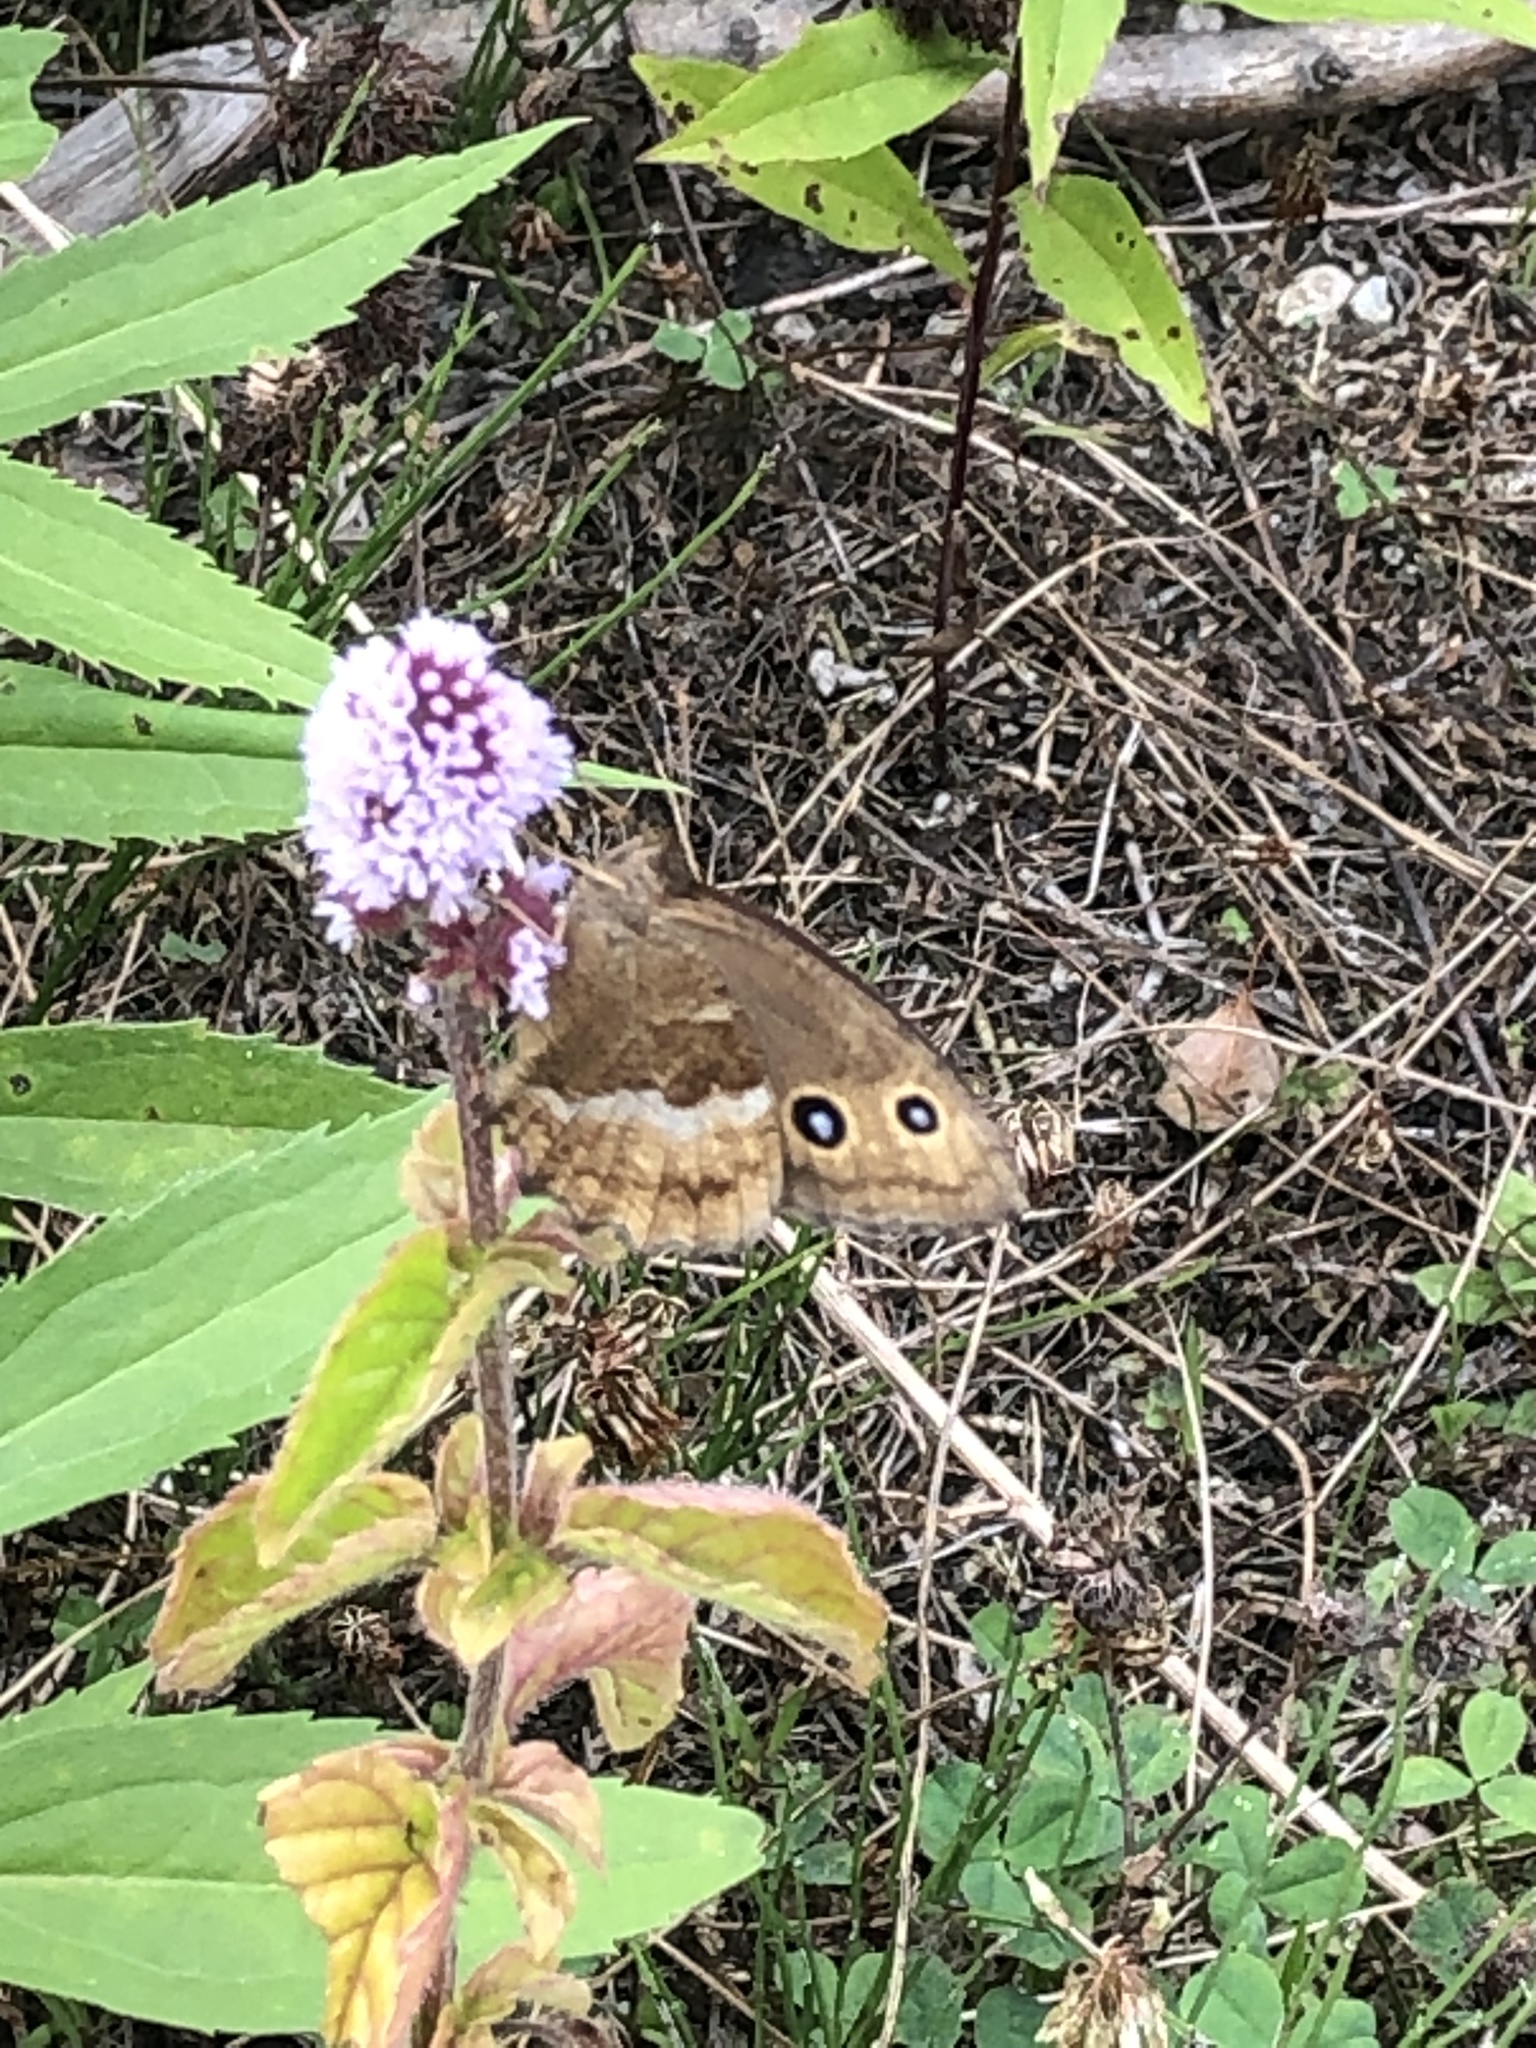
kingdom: Animalia
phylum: Arthropoda
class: Insecta
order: Lepidoptera
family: Nymphalidae
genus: Minois
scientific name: Minois dryas
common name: Dryad
